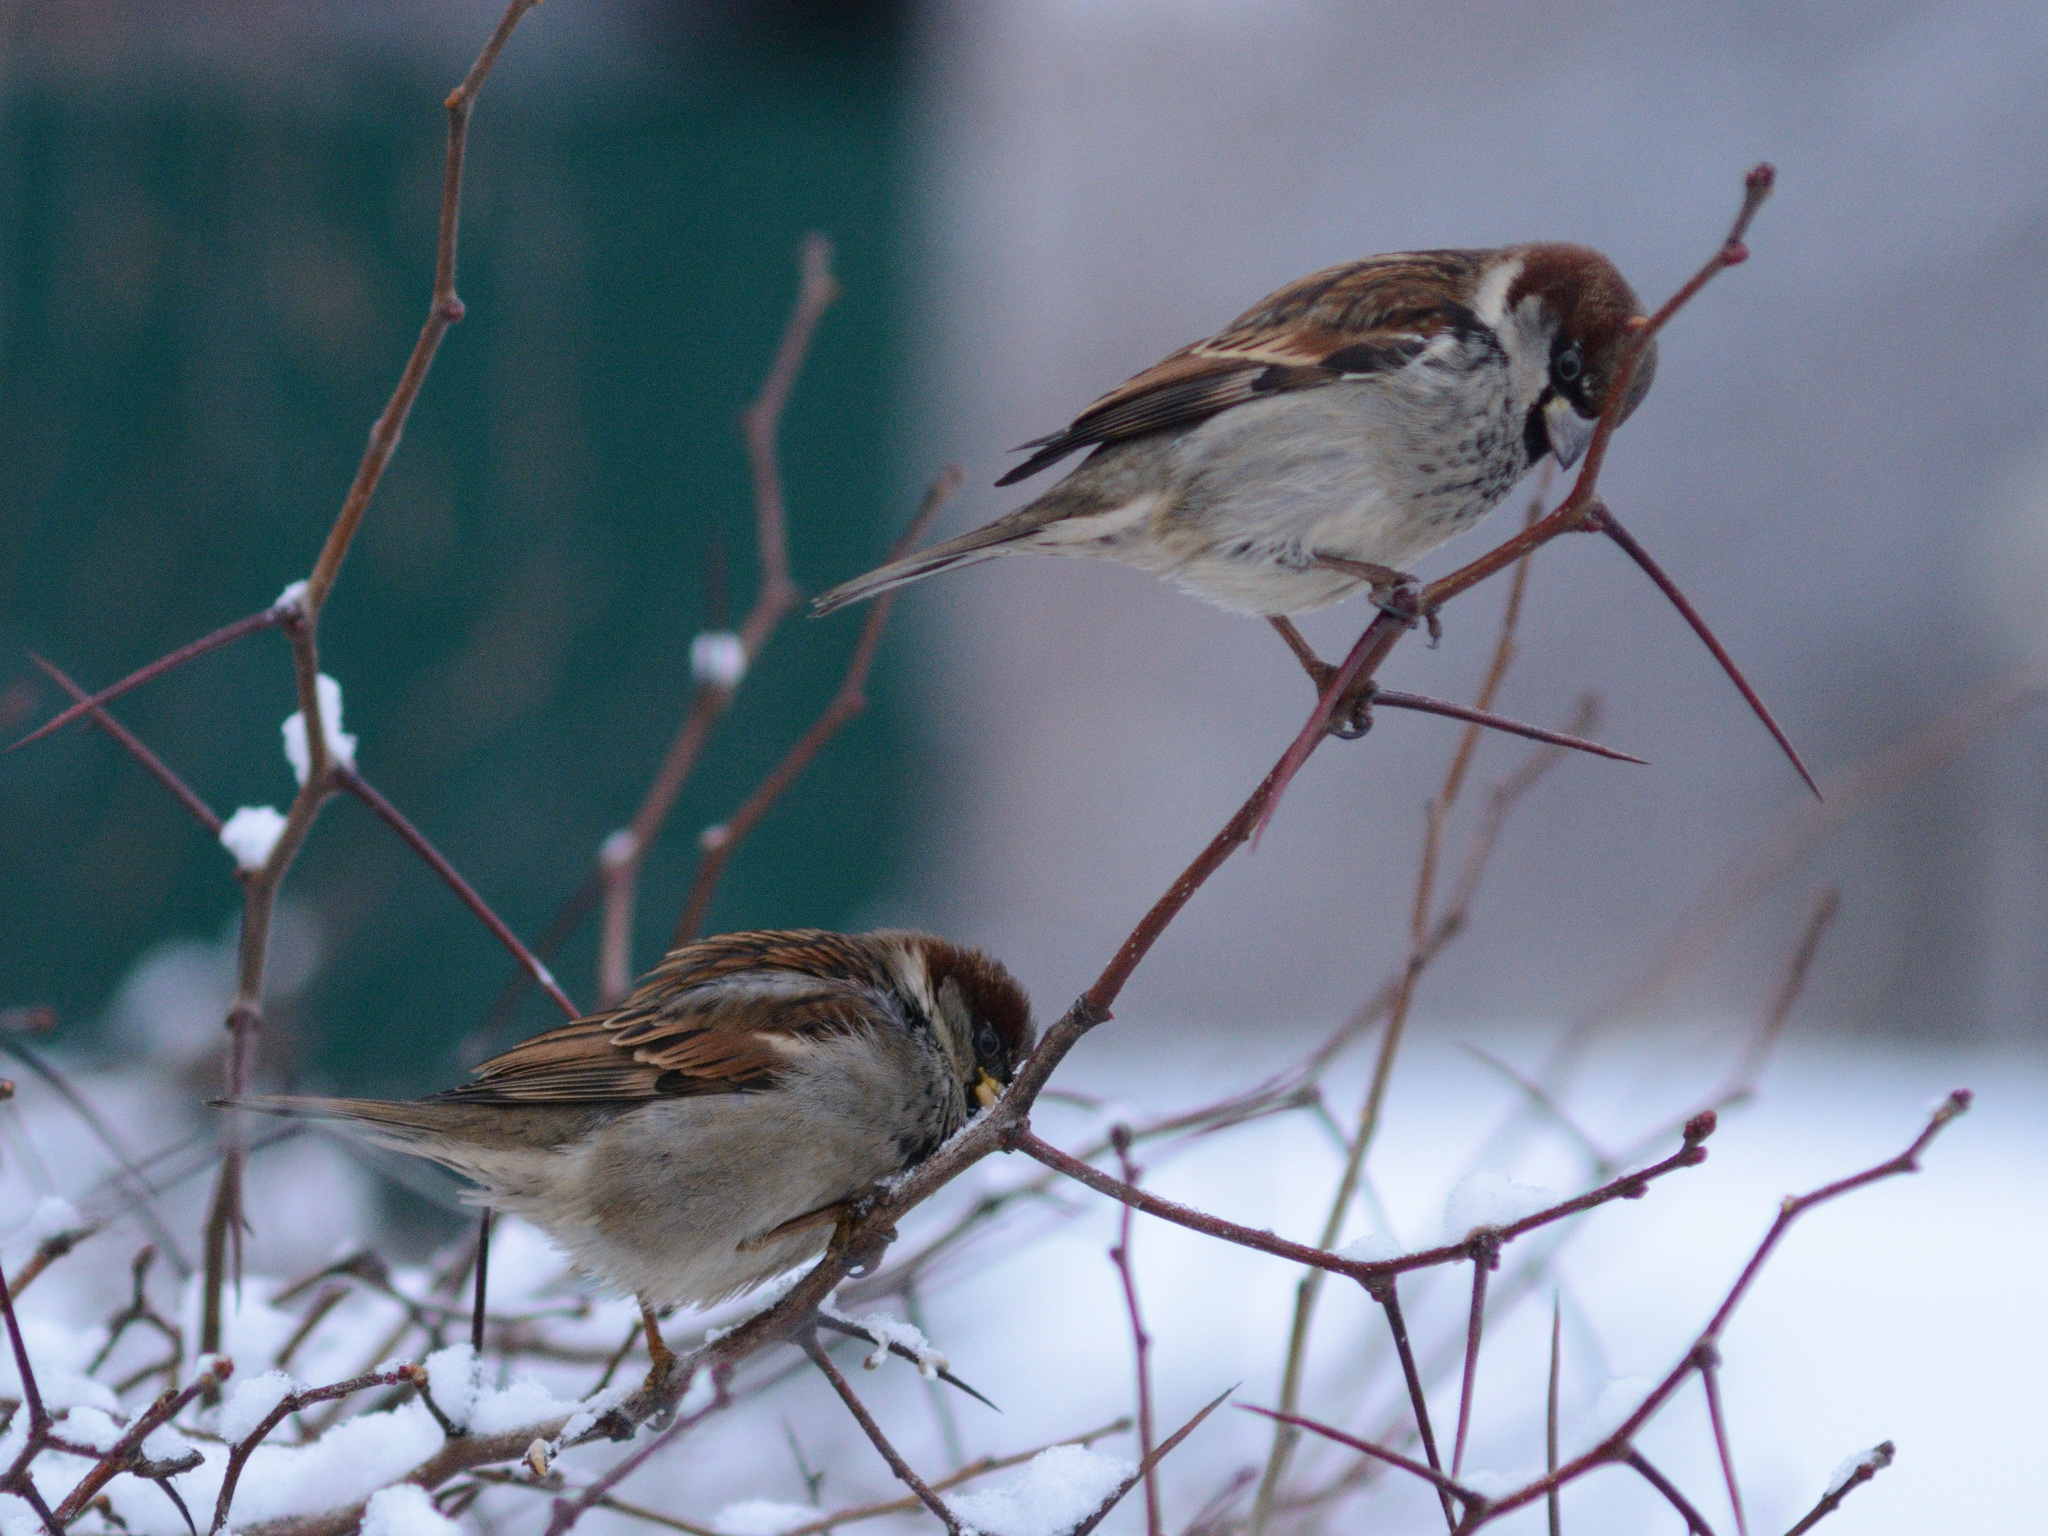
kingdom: Animalia
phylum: Chordata
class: Aves
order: Passeriformes
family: Passeridae
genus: Passer
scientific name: Passer domesticus
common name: House sparrow
